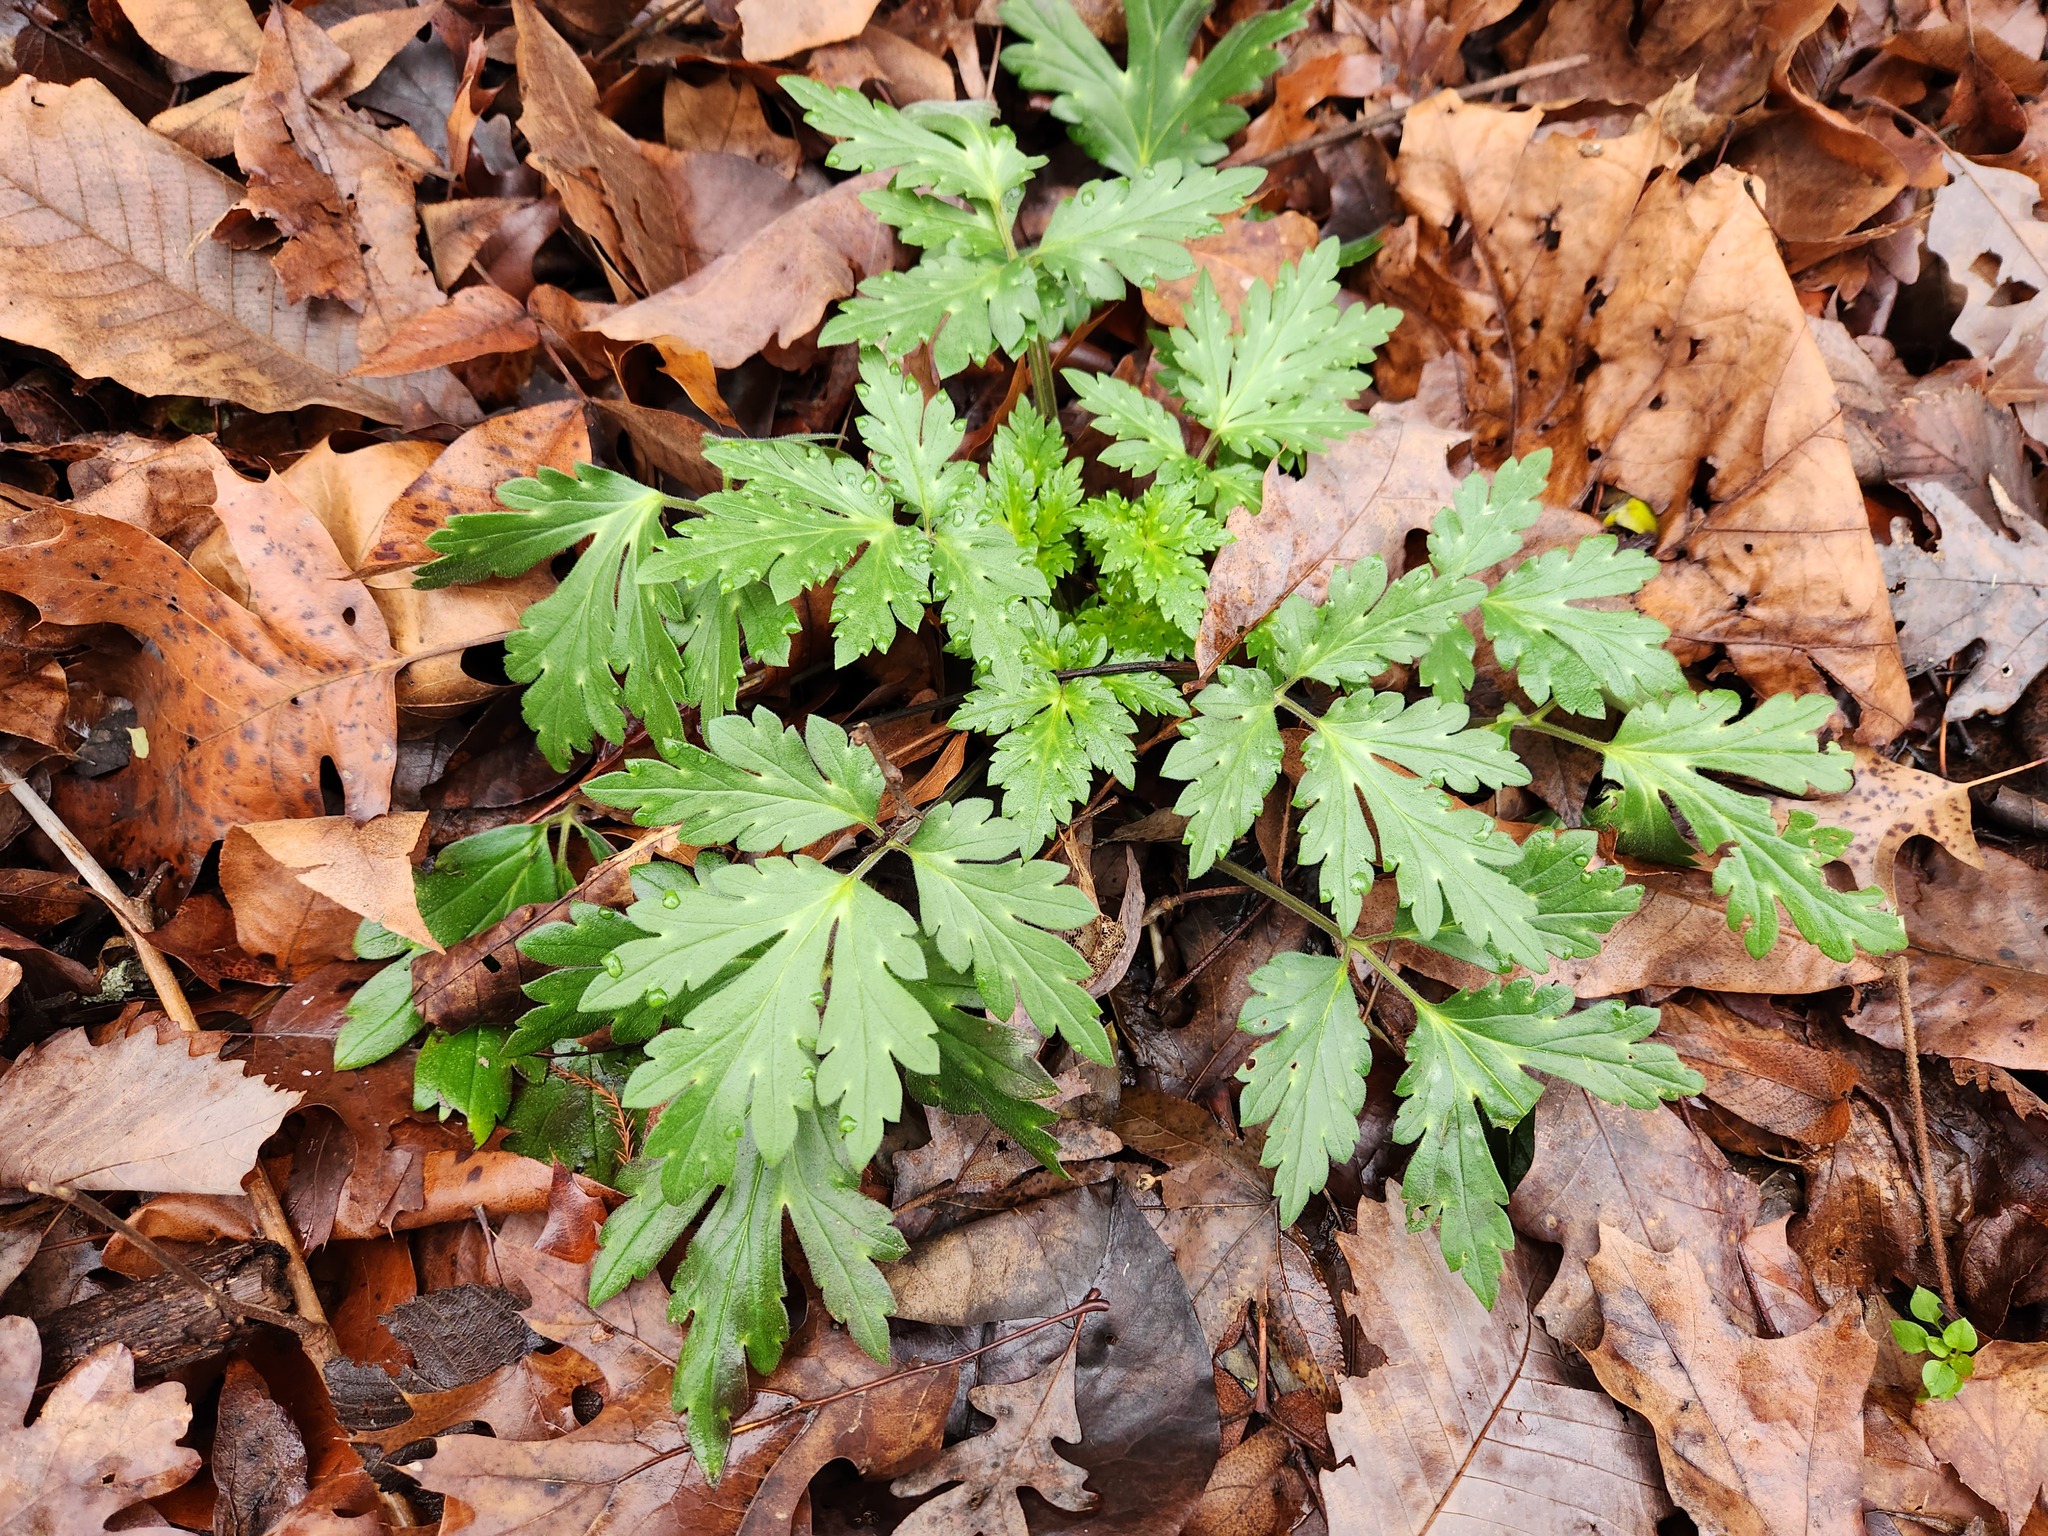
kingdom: Plantae
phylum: Tracheophyta
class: Magnoliopsida
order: Boraginales
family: Hydrophyllaceae
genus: Phacelia
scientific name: Phacelia bipinnatifida
